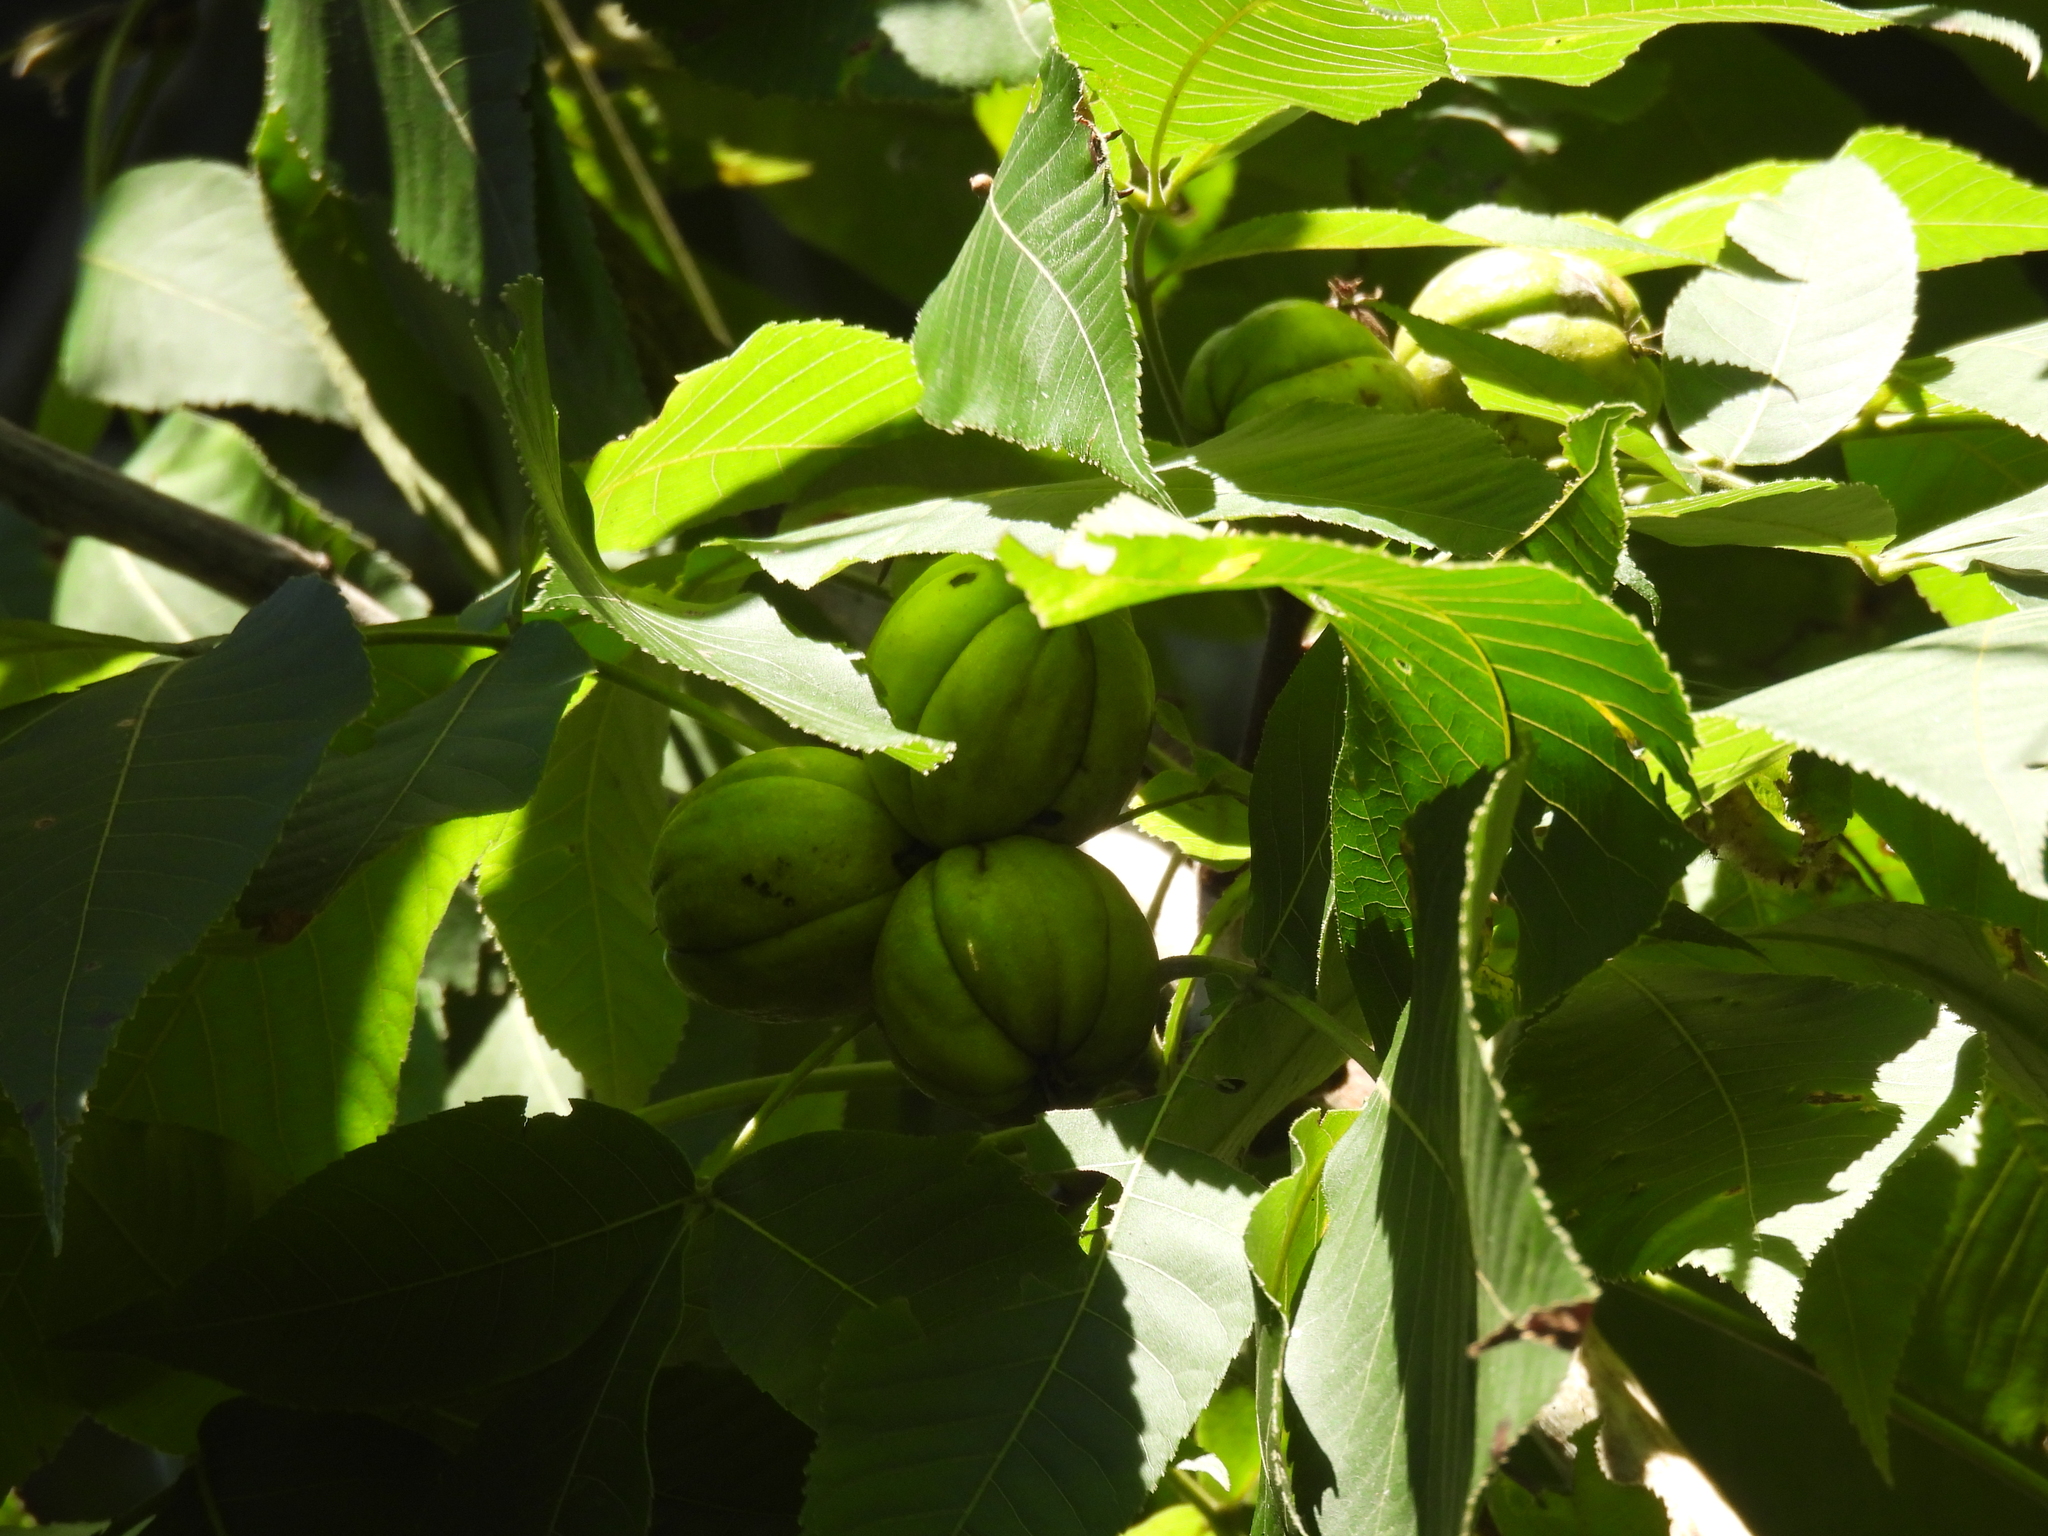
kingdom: Plantae
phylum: Tracheophyta
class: Magnoliopsida
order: Fagales
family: Juglandaceae
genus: Carya
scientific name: Carya ovata
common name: Shagbark hickory
